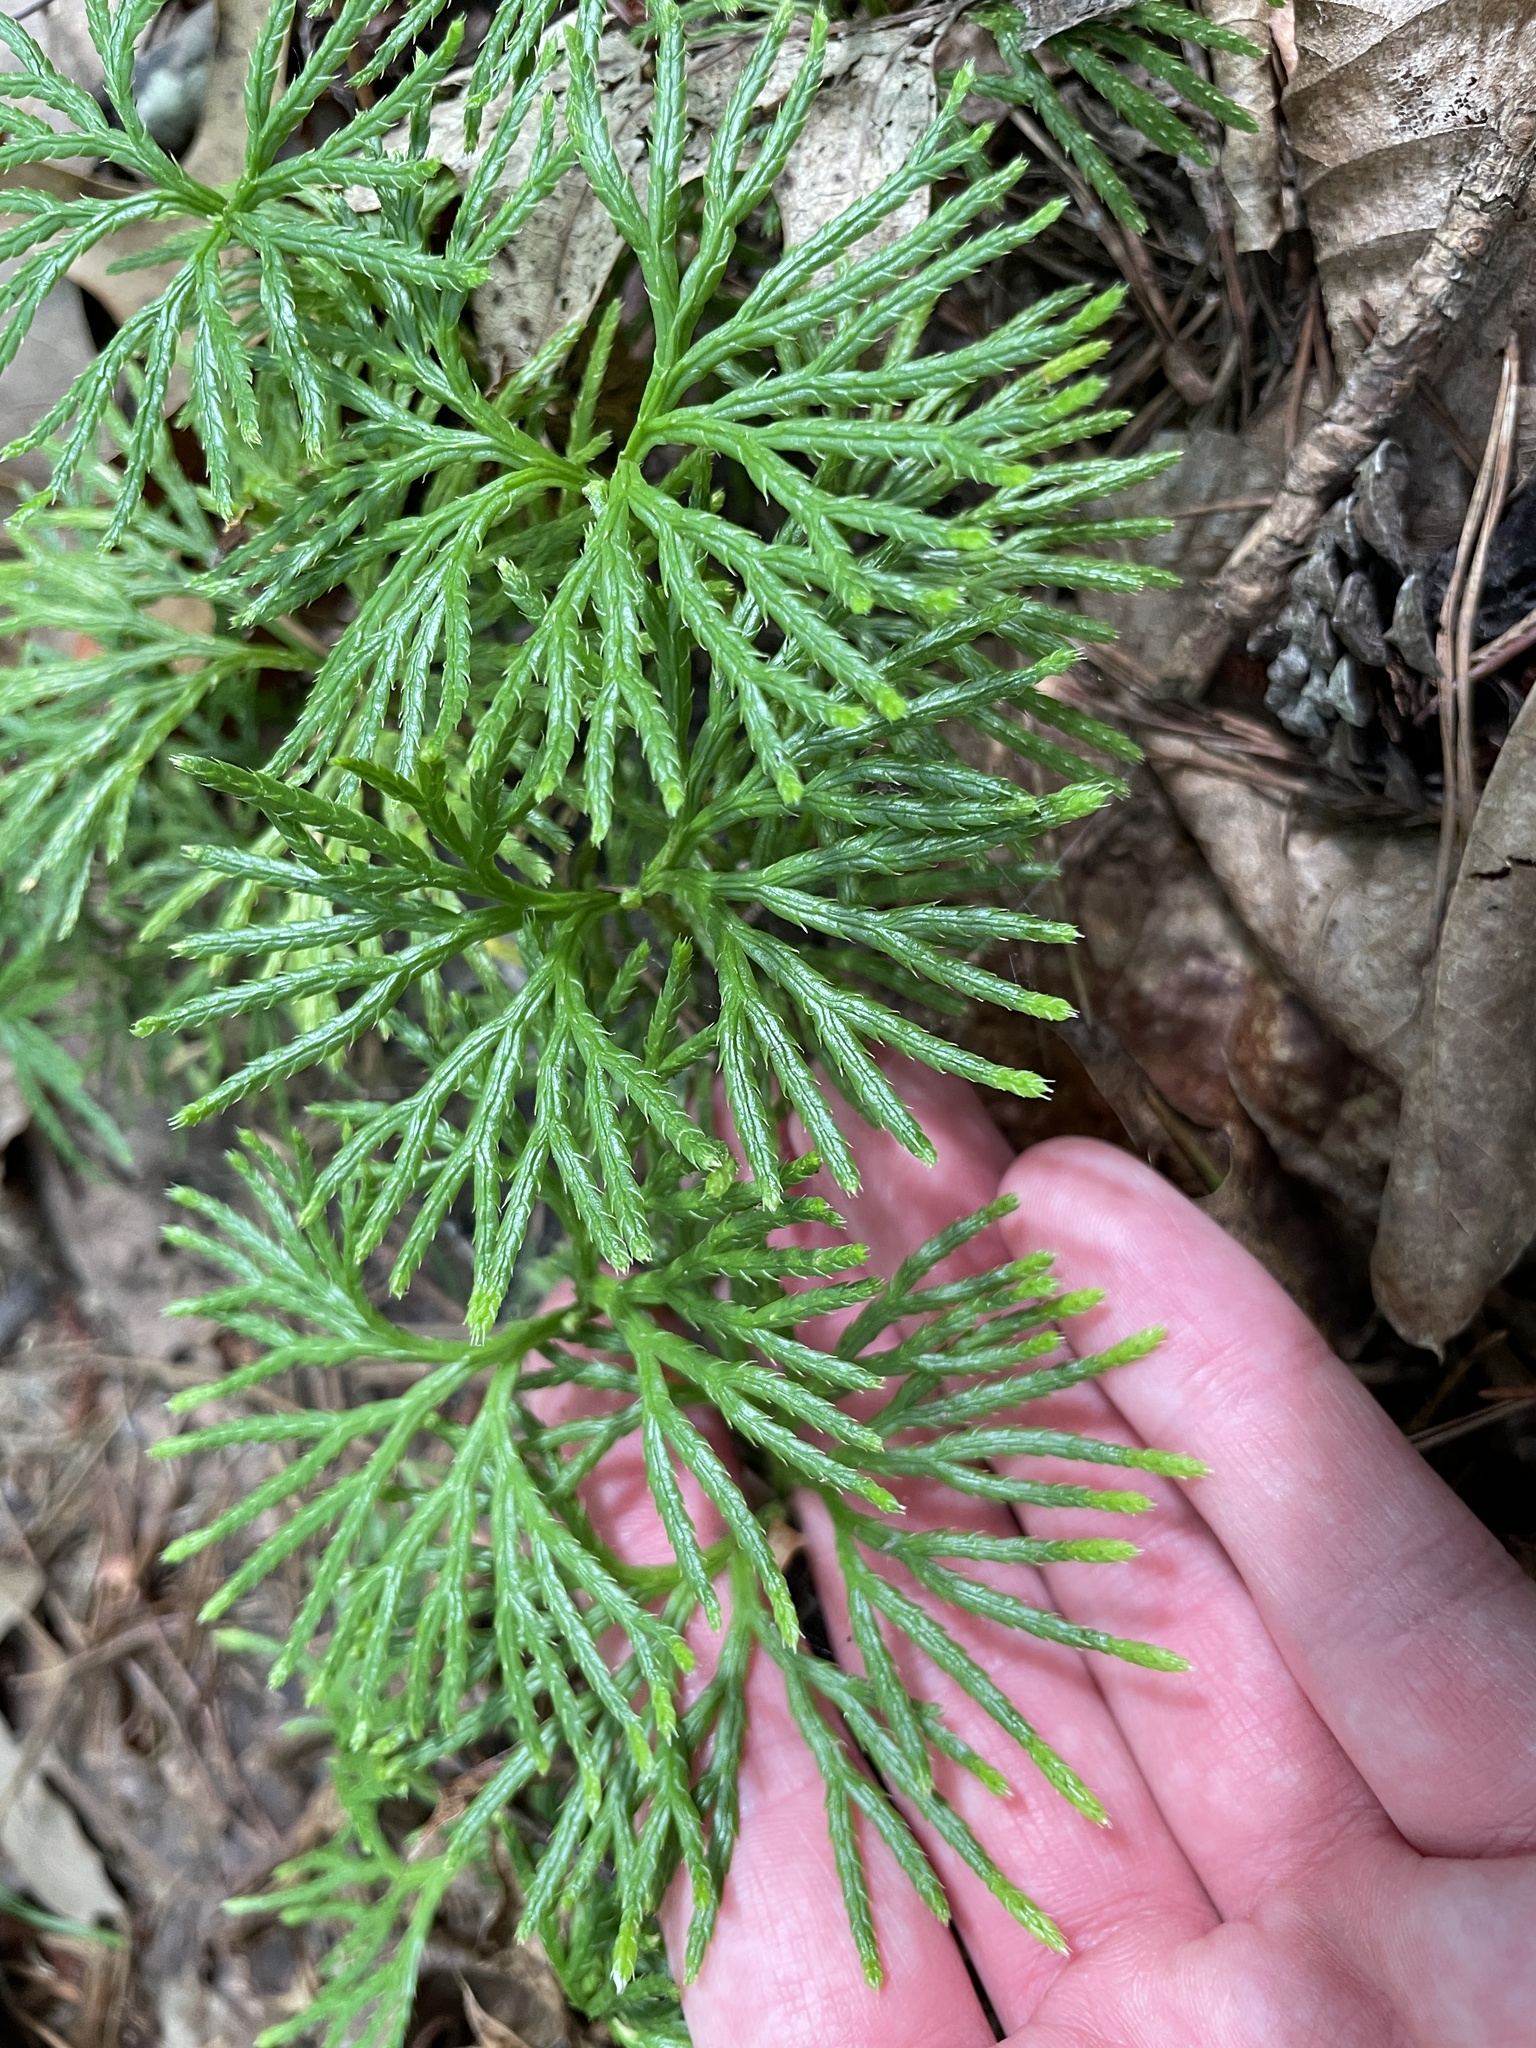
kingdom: Plantae
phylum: Tracheophyta
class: Lycopodiopsida
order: Lycopodiales
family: Lycopodiaceae
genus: Diphasiastrum
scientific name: Diphasiastrum digitatum
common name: Southern running-pine
